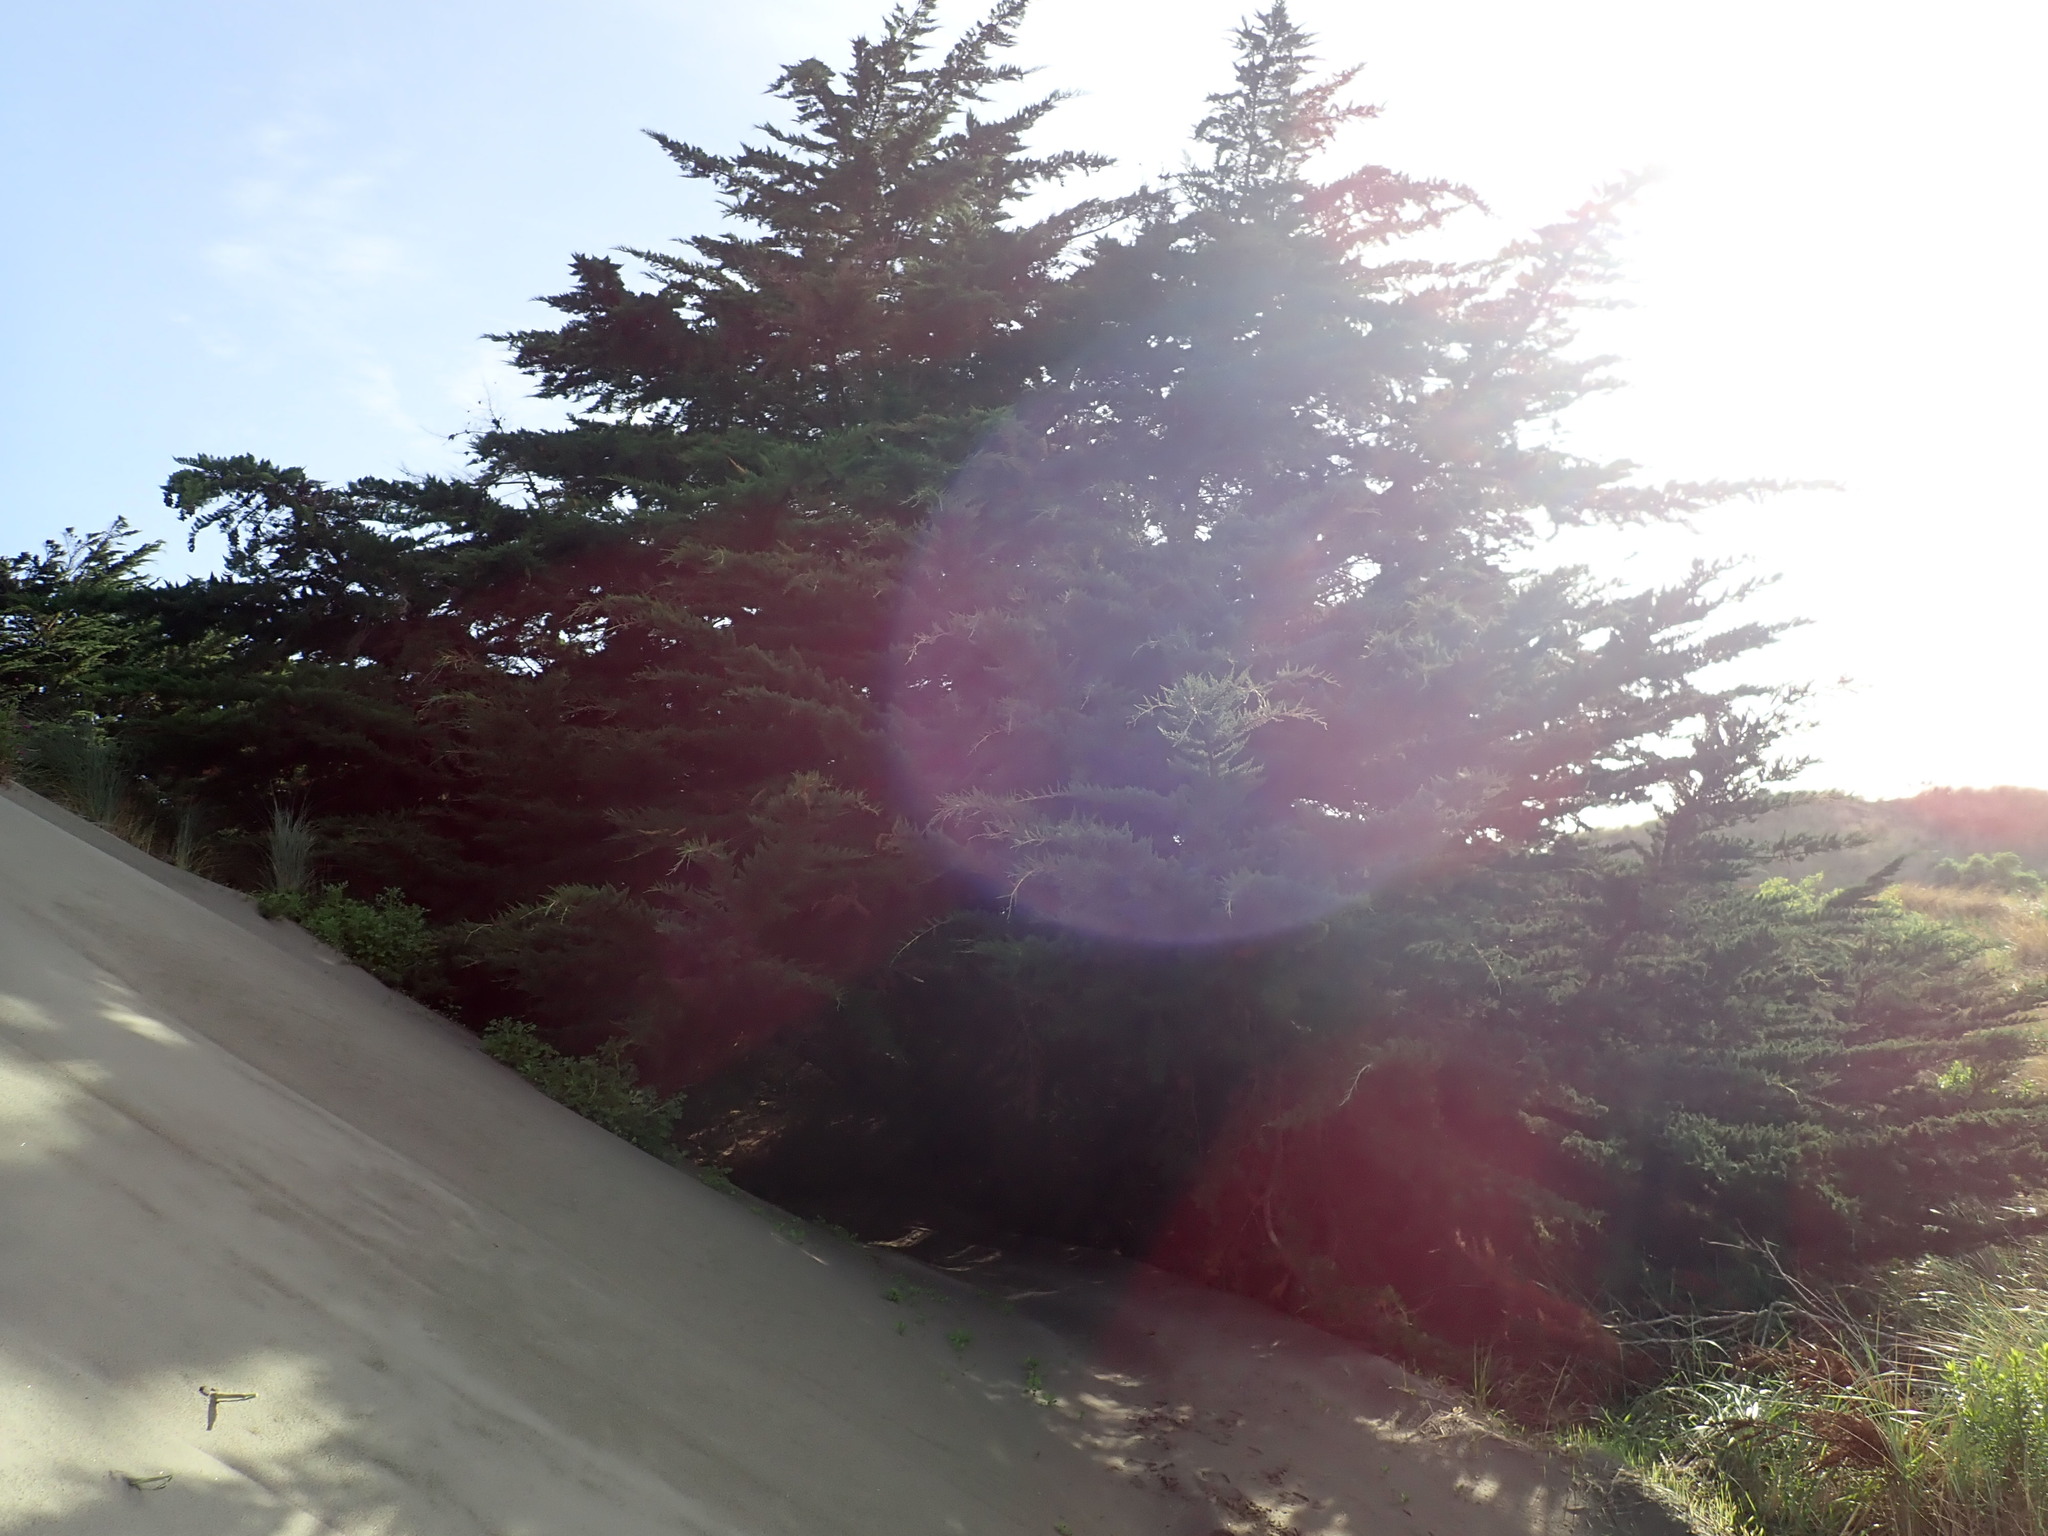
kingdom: Plantae
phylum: Tracheophyta
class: Pinopsida
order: Pinales
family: Cupressaceae
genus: Cupressus
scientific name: Cupressus macrocarpa
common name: Monterey cypress
